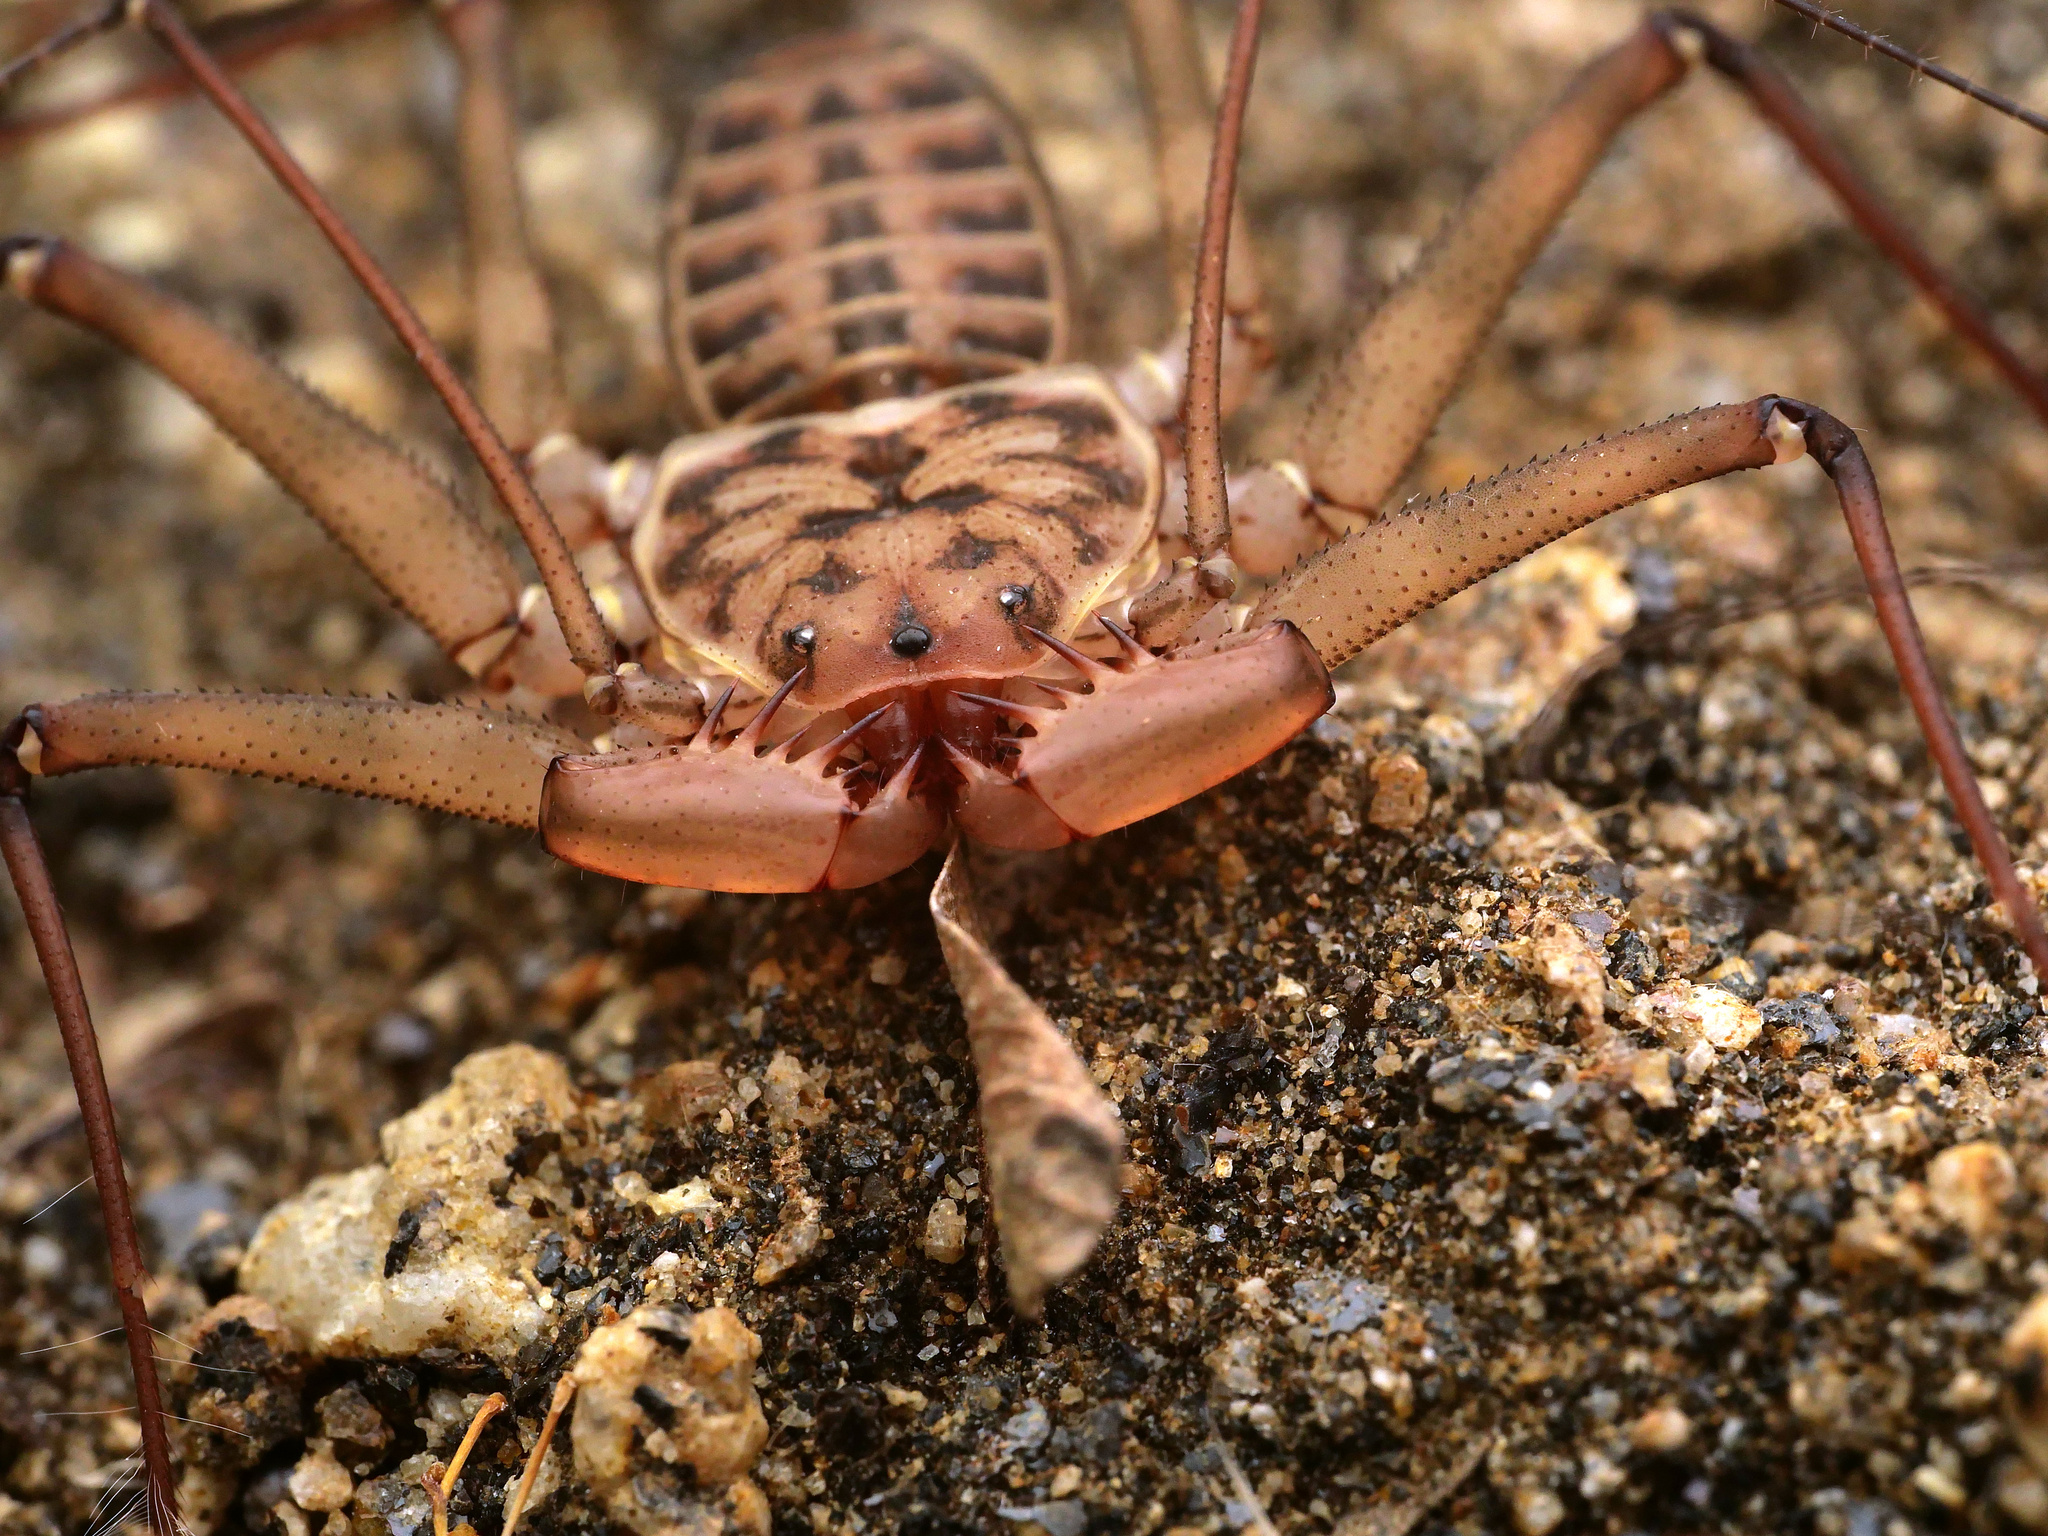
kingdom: Animalia
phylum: Arthropoda
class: Arachnida
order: Amblypygi
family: Phrynidae
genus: Phrynus
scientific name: Phrynus asperatipes
